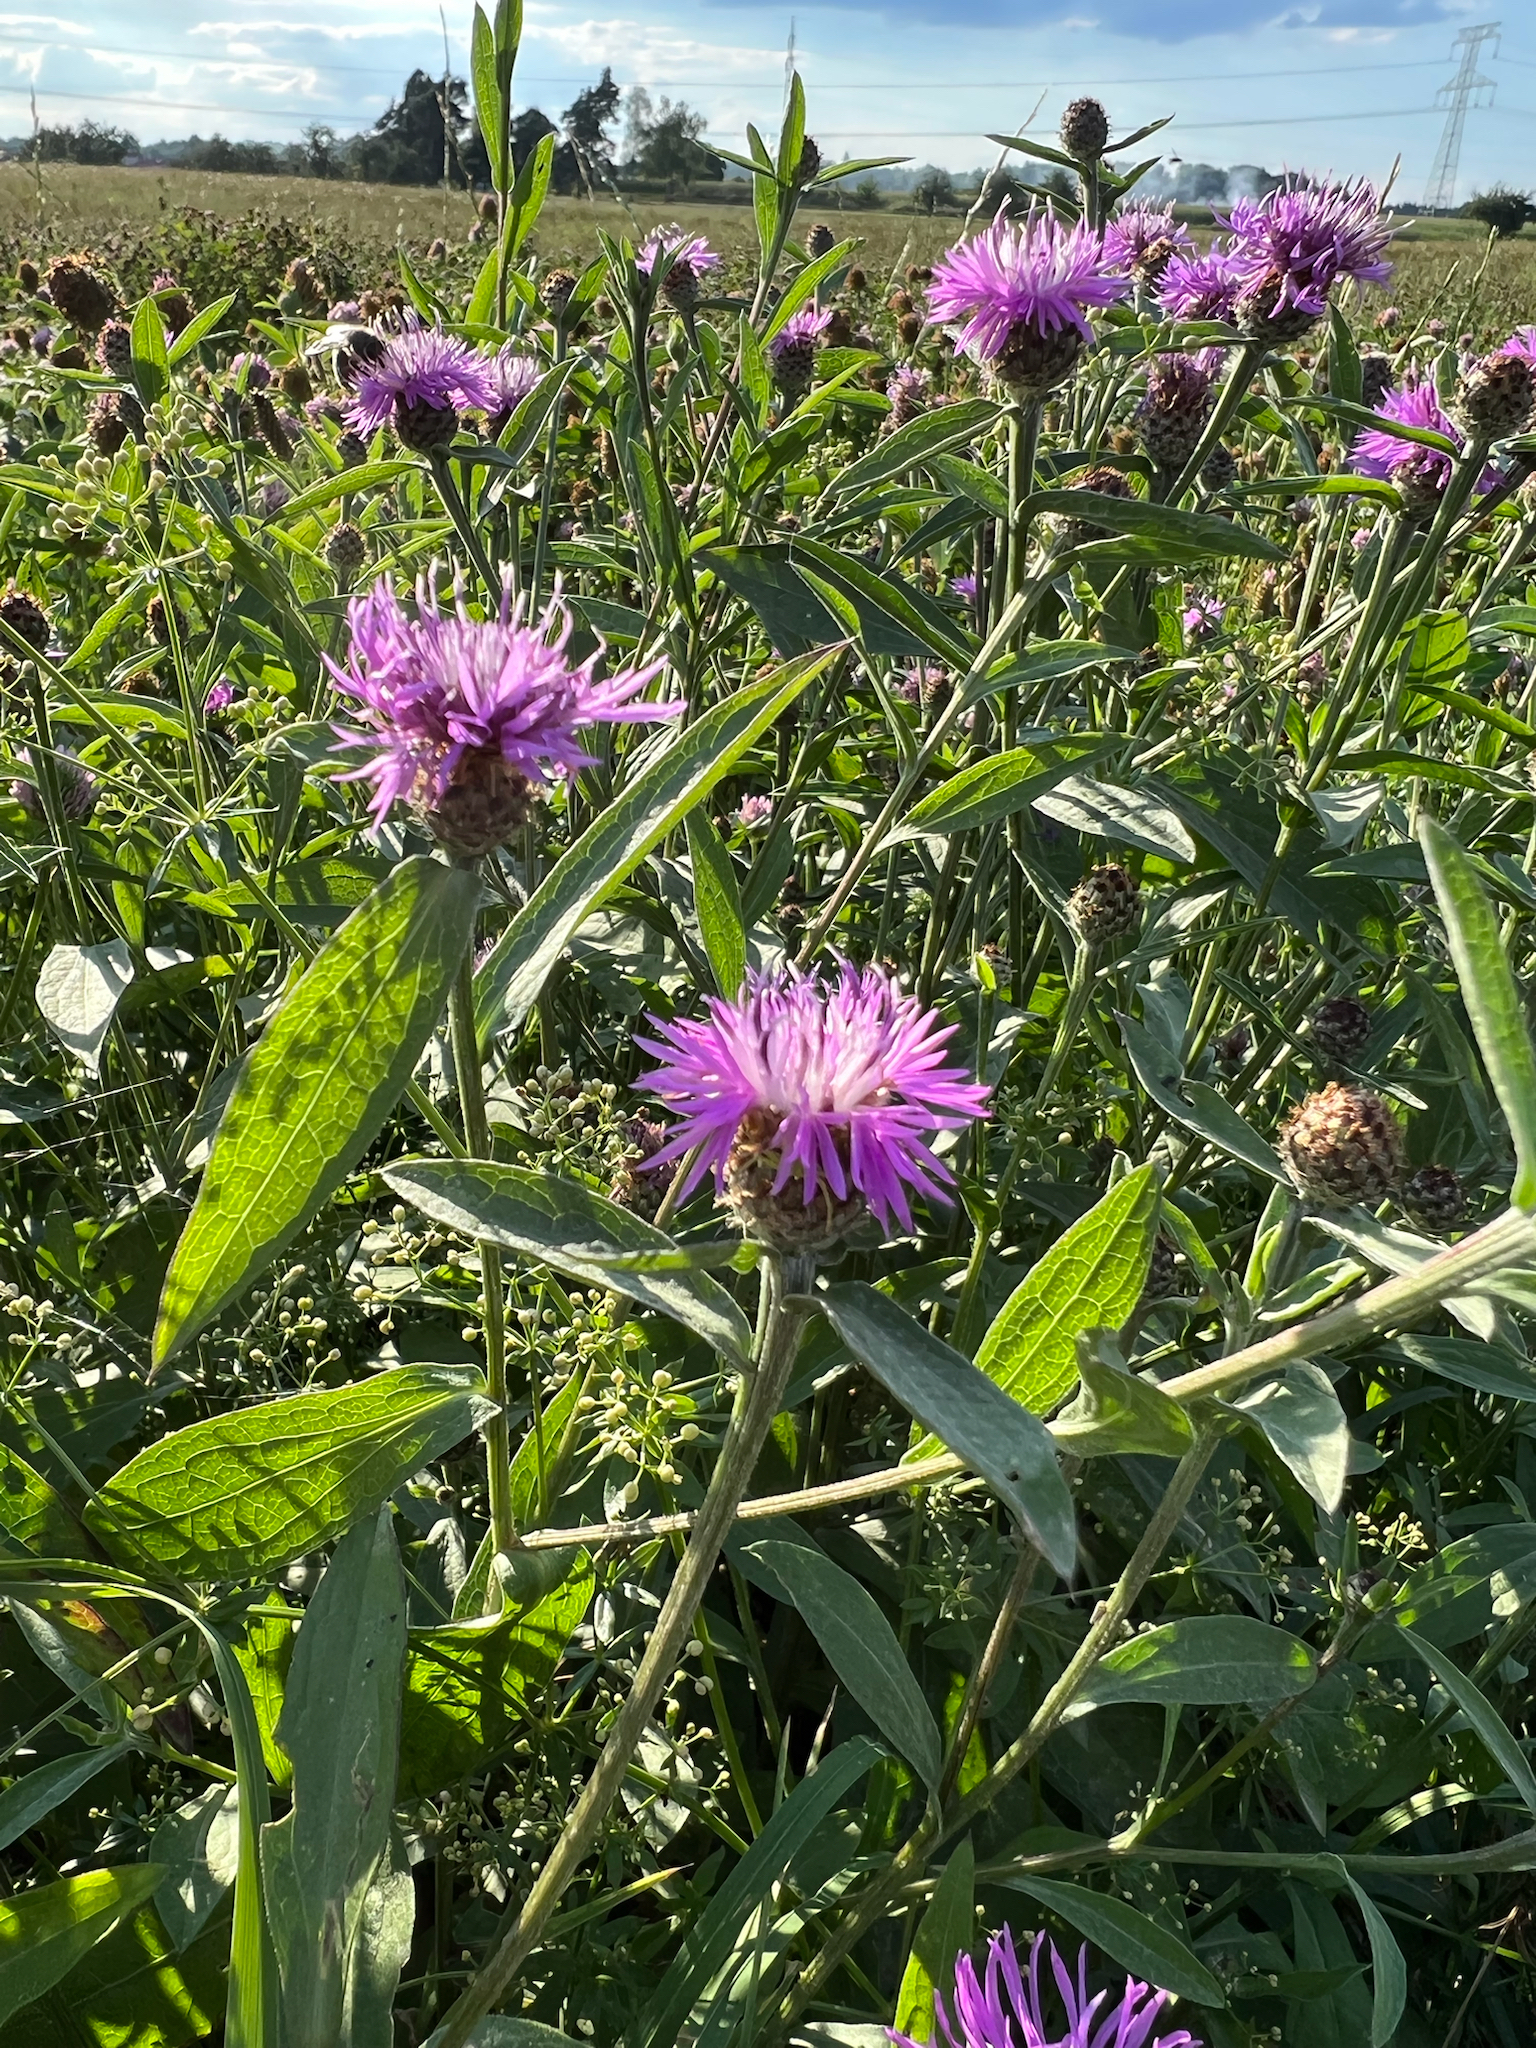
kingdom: Plantae
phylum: Tracheophyta
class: Magnoliopsida
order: Asterales
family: Asteraceae
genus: Centaurea
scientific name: Centaurea jacea
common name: Brown knapweed
